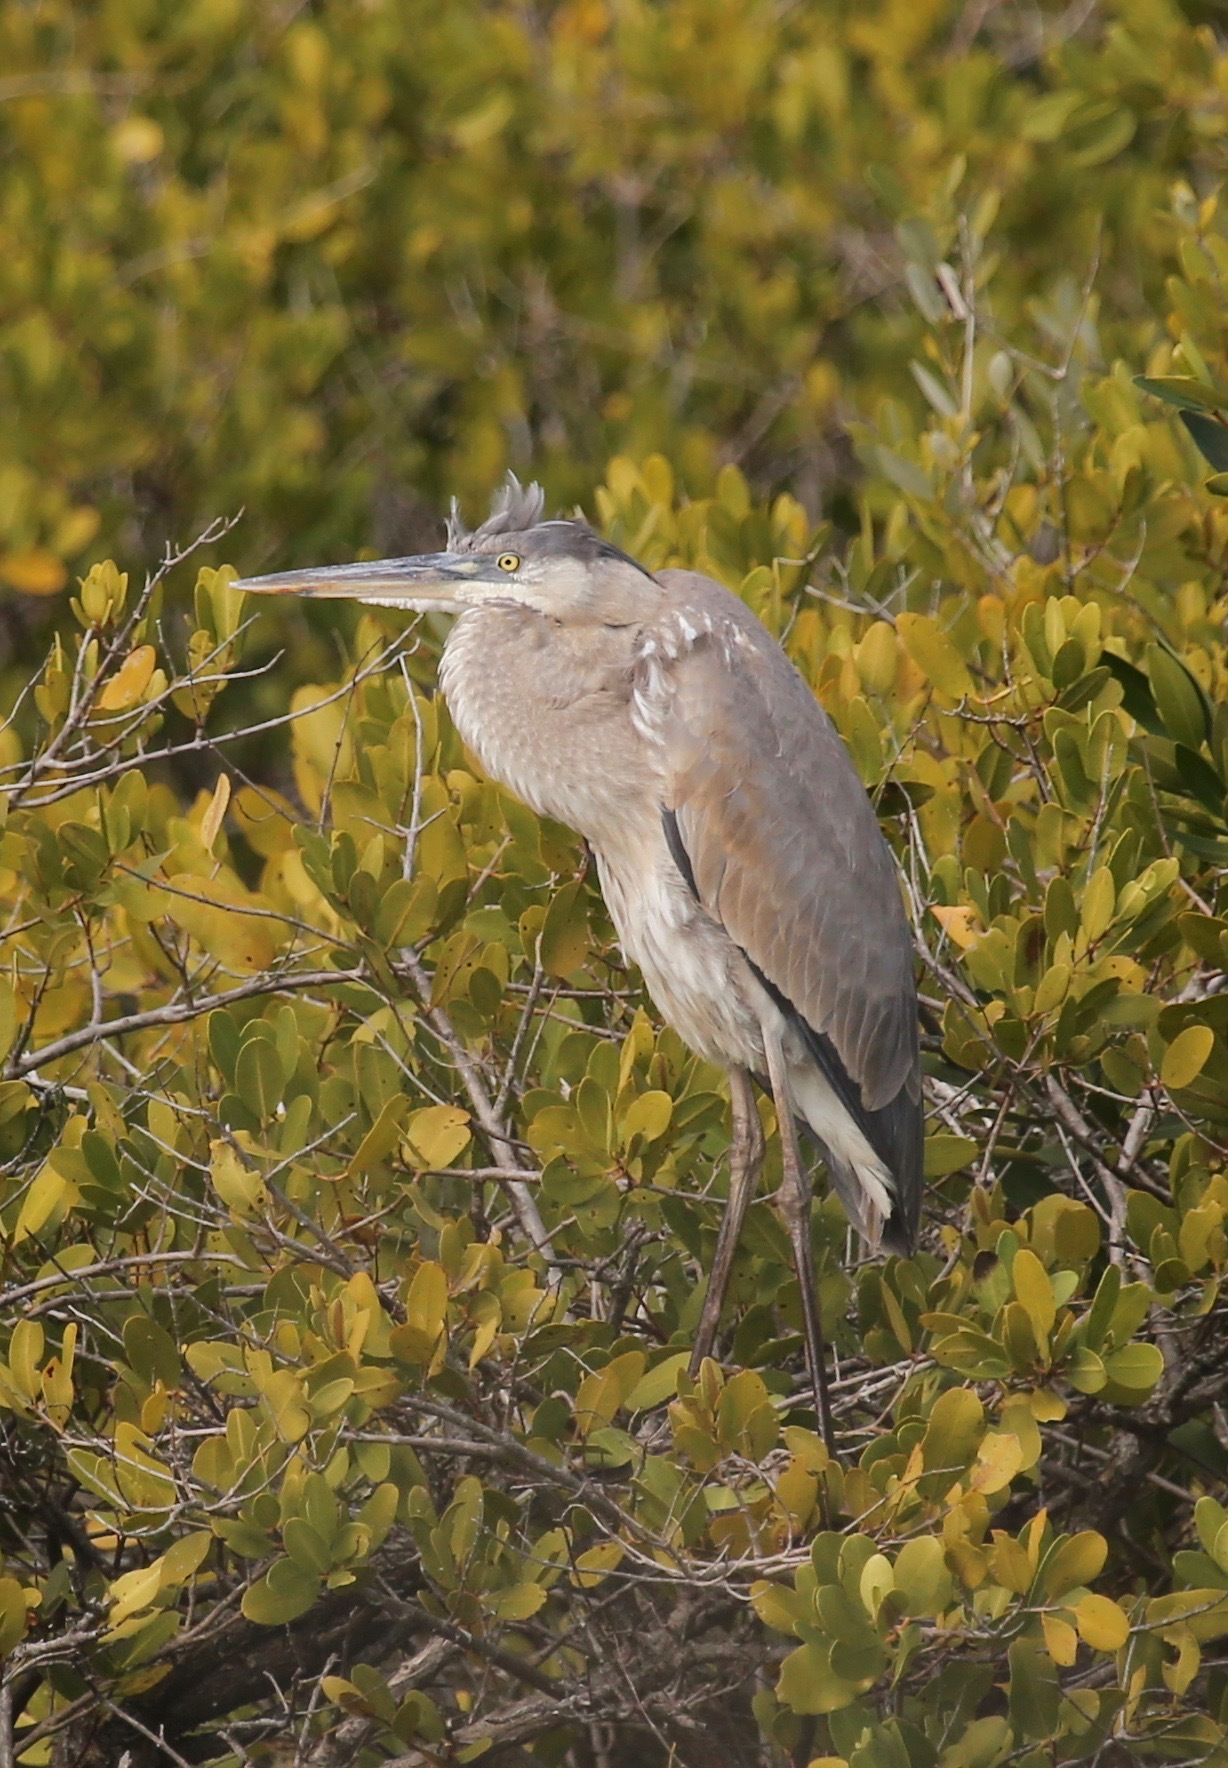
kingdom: Animalia
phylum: Chordata
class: Aves
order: Pelecaniformes
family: Ardeidae
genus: Ardea
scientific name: Ardea herodias
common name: Great blue heron
